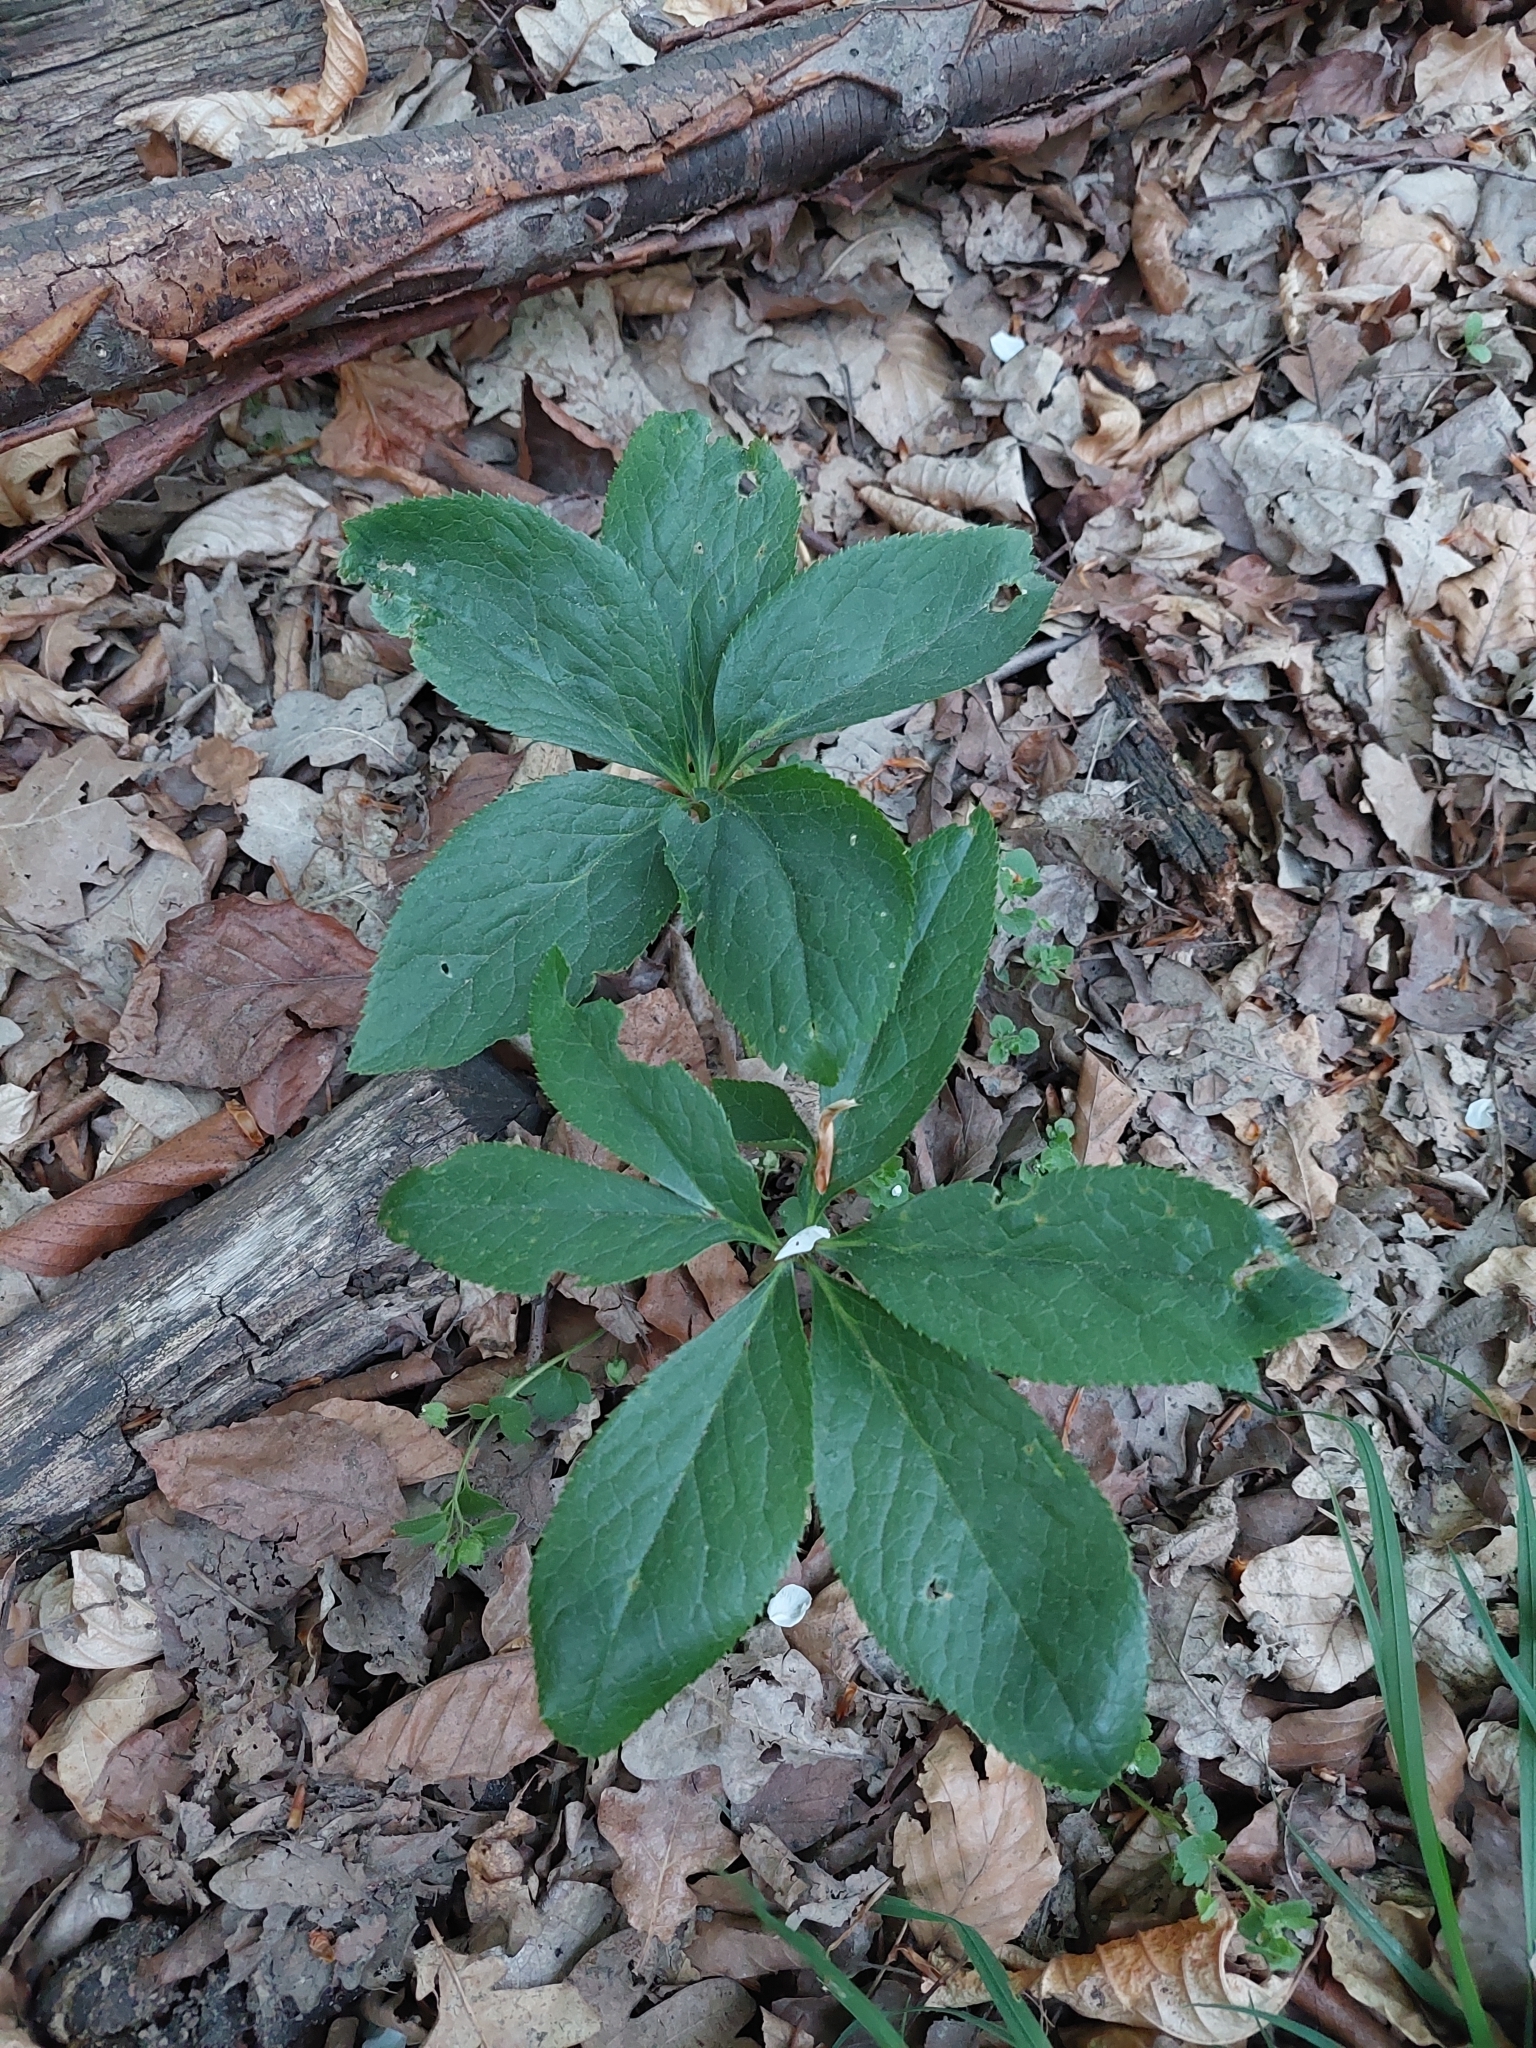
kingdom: Plantae
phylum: Tracheophyta
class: Magnoliopsida
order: Malpighiales
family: Euphorbiaceae
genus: Mercurialis
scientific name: Mercurialis perennis
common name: Dog mercury
